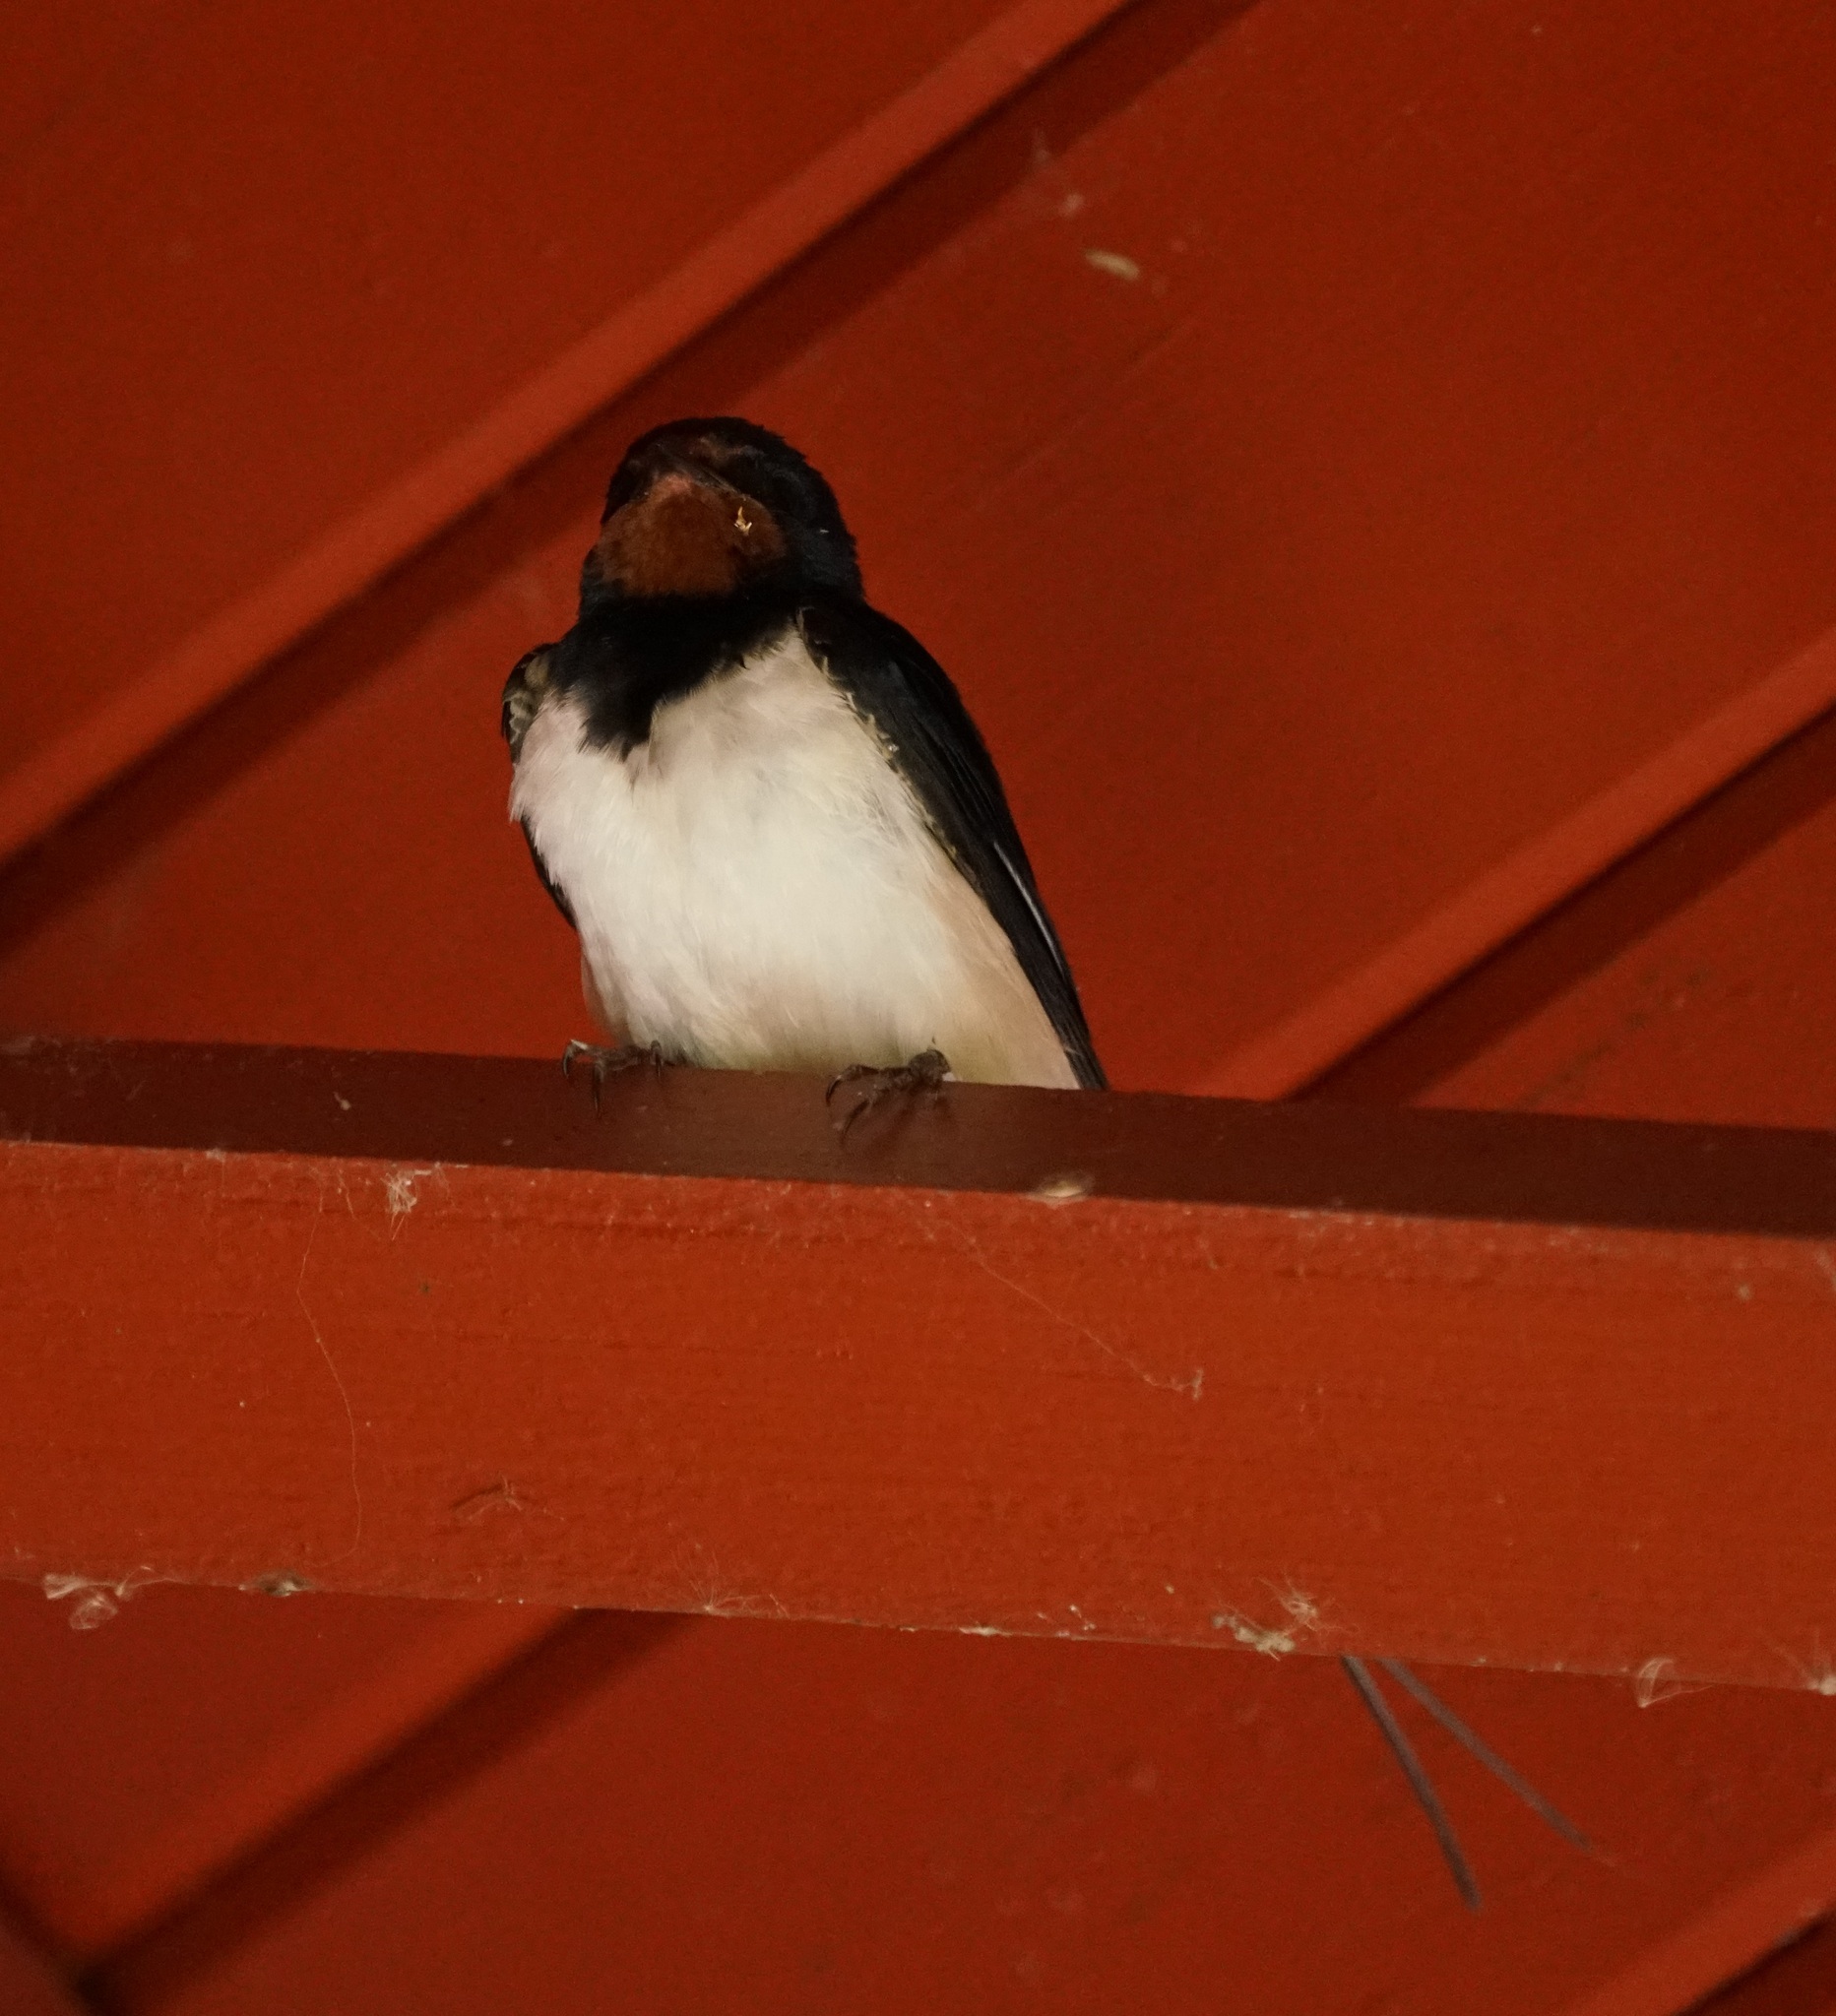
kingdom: Animalia
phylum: Chordata
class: Aves
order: Passeriformes
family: Hirundinidae
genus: Hirundo
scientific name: Hirundo rustica
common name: Barn swallow
